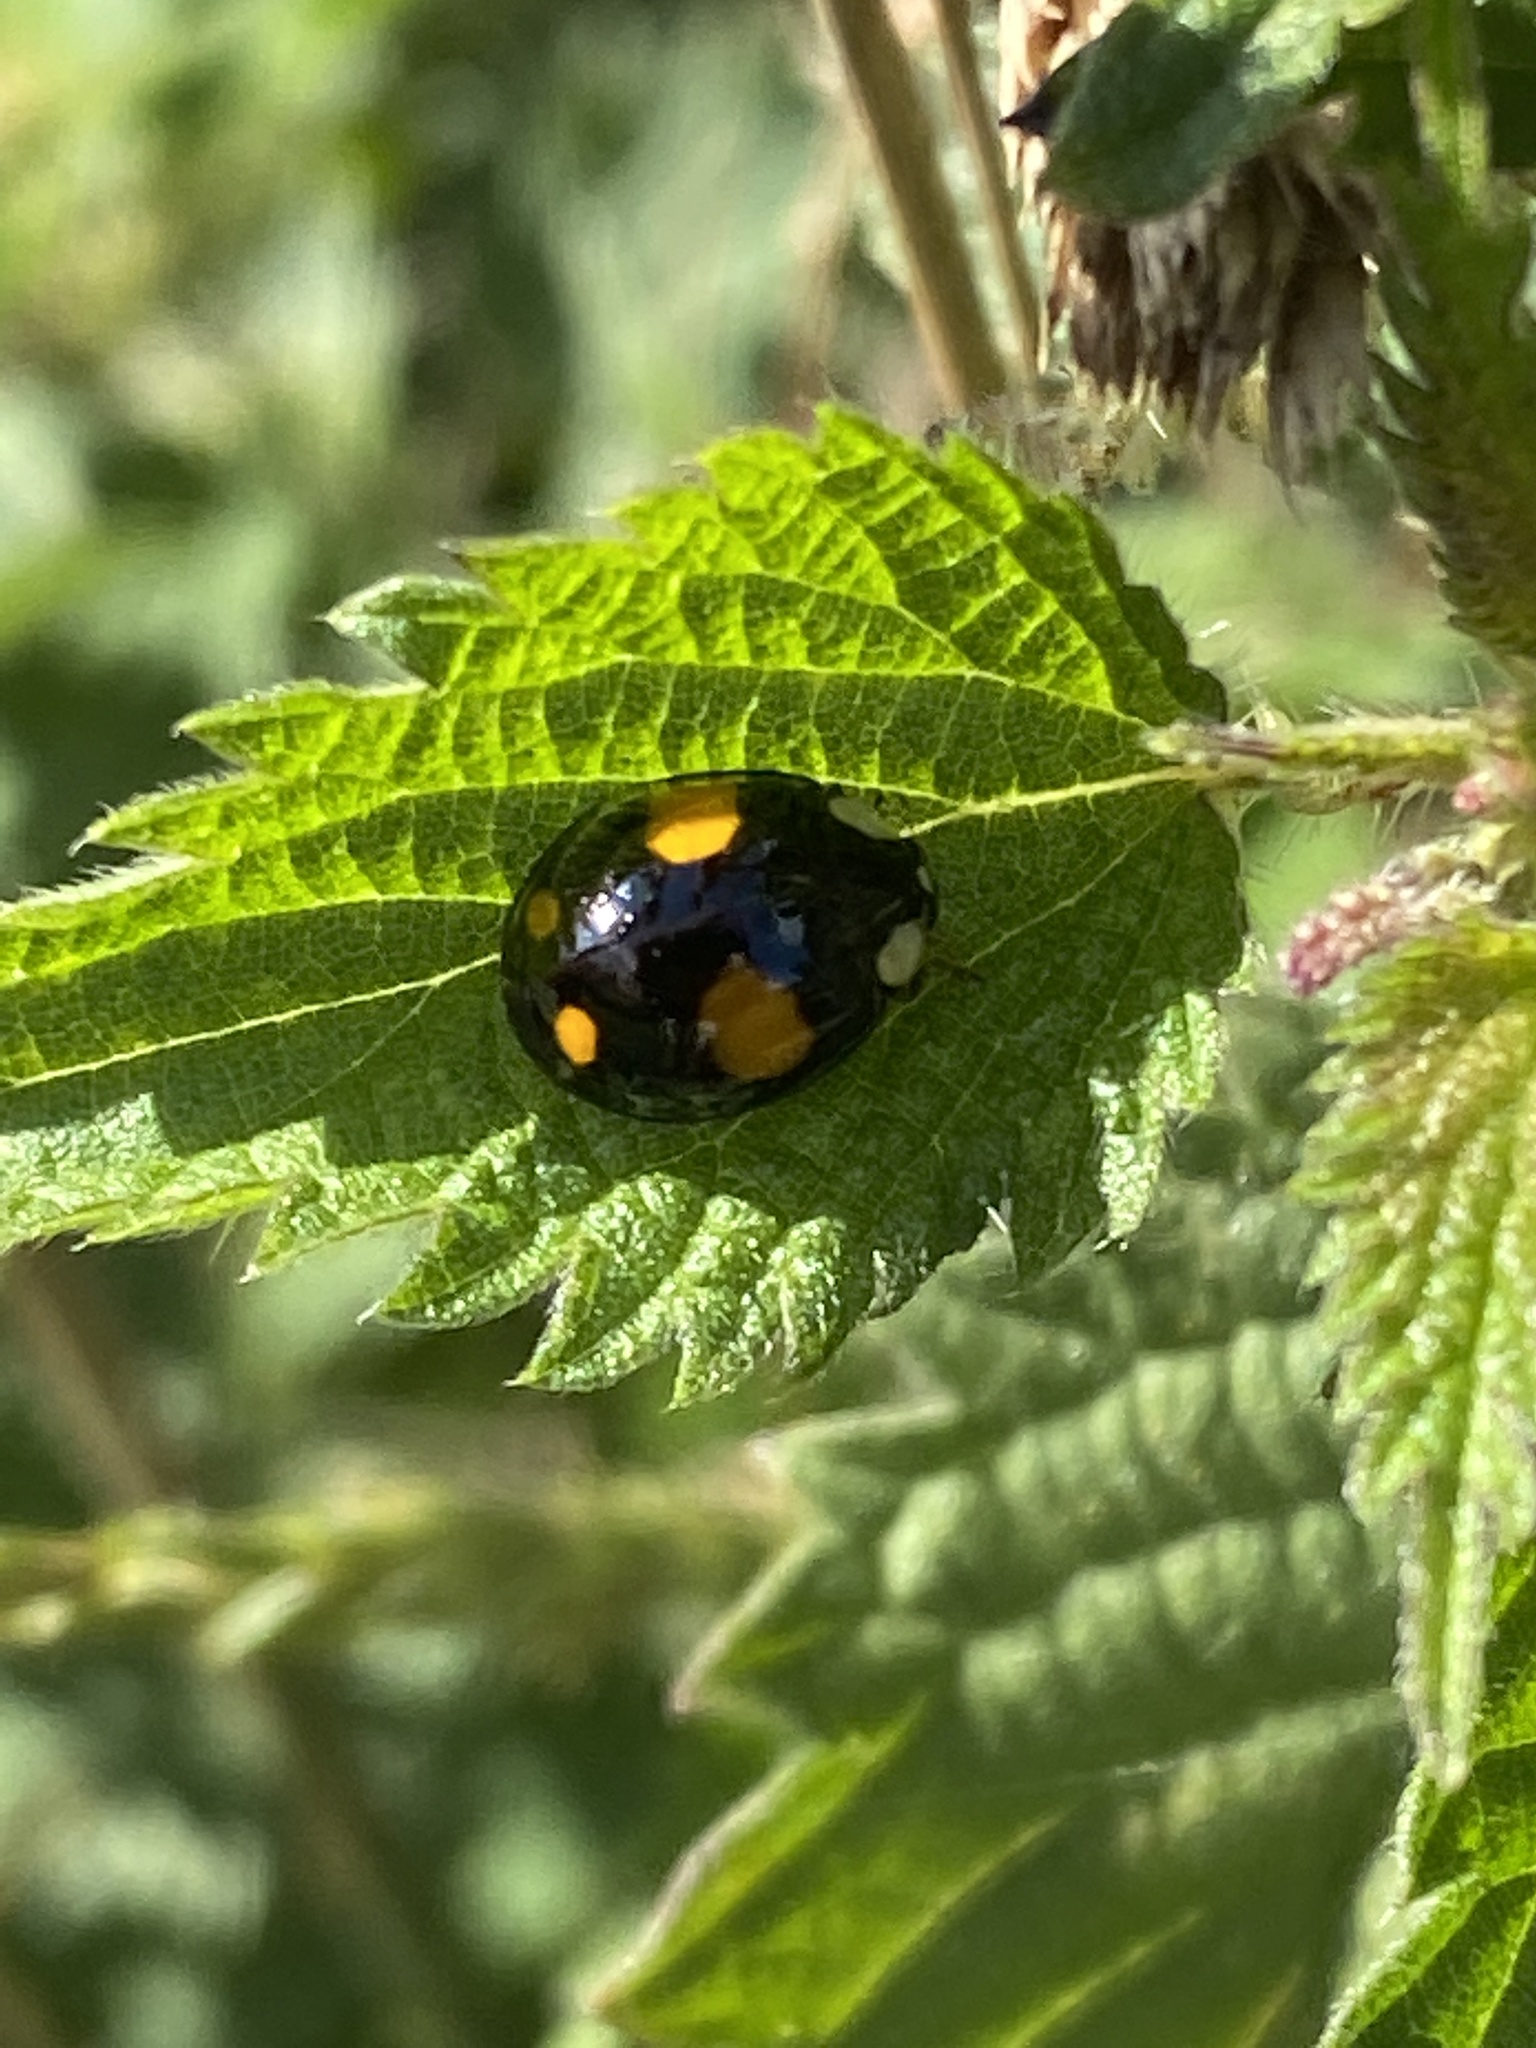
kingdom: Animalia
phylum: Arthropoda
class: Insecta
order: Coleoptera
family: Coccinellidae
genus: Harmonia
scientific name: Harmonia axyridis
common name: Harlequin ladybird
